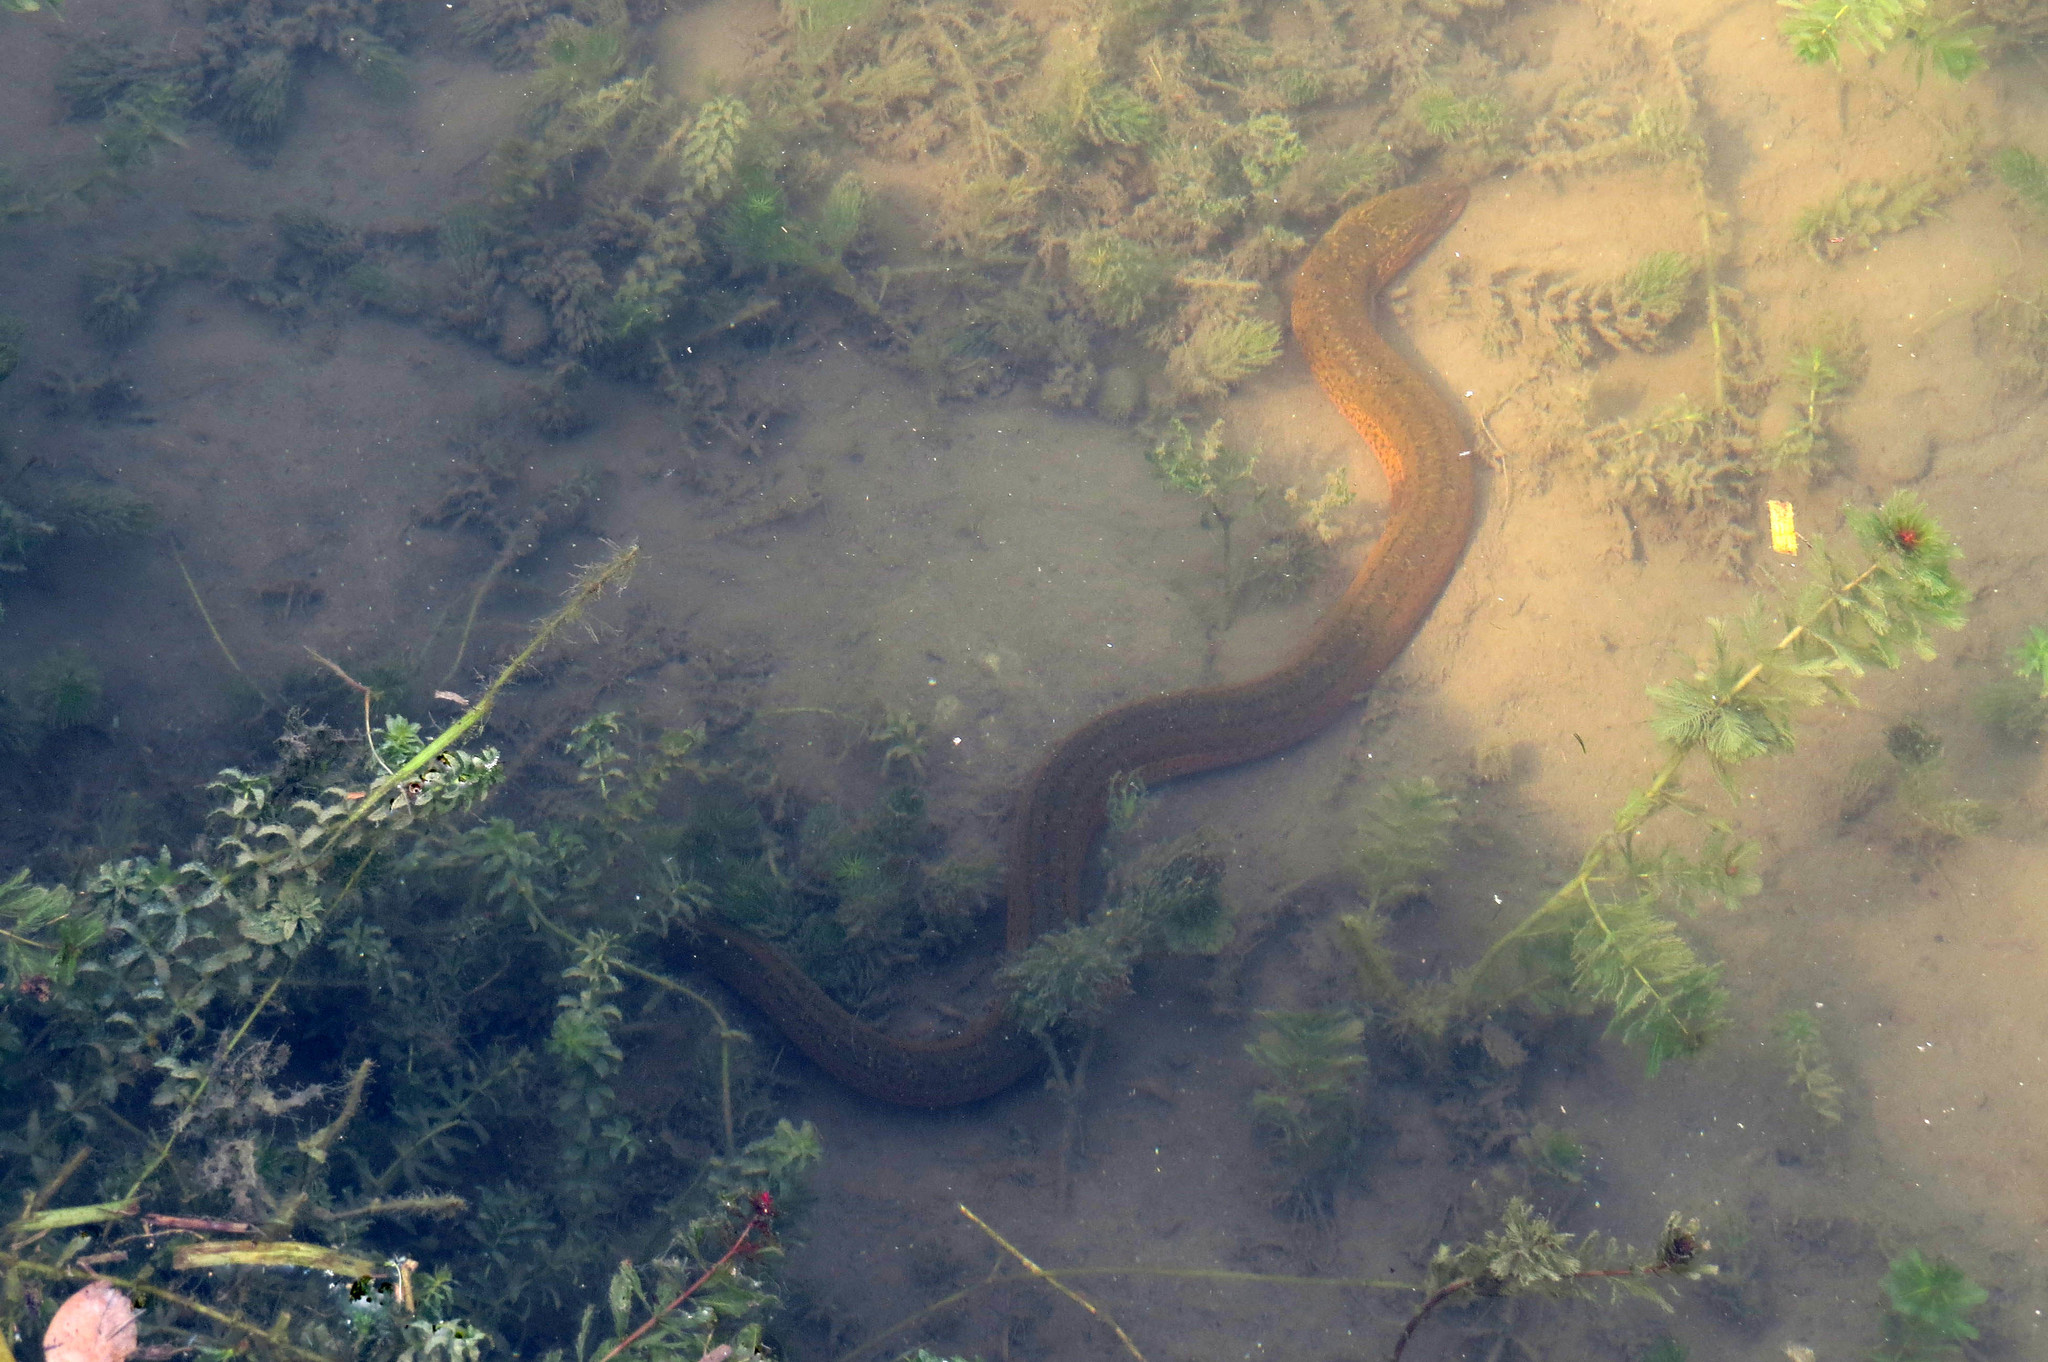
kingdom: Animalia
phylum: Chordata
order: Synbranchiformes
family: Synbranchidae
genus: Monopterus
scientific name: Monopterus albus
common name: Asian swamp eel
